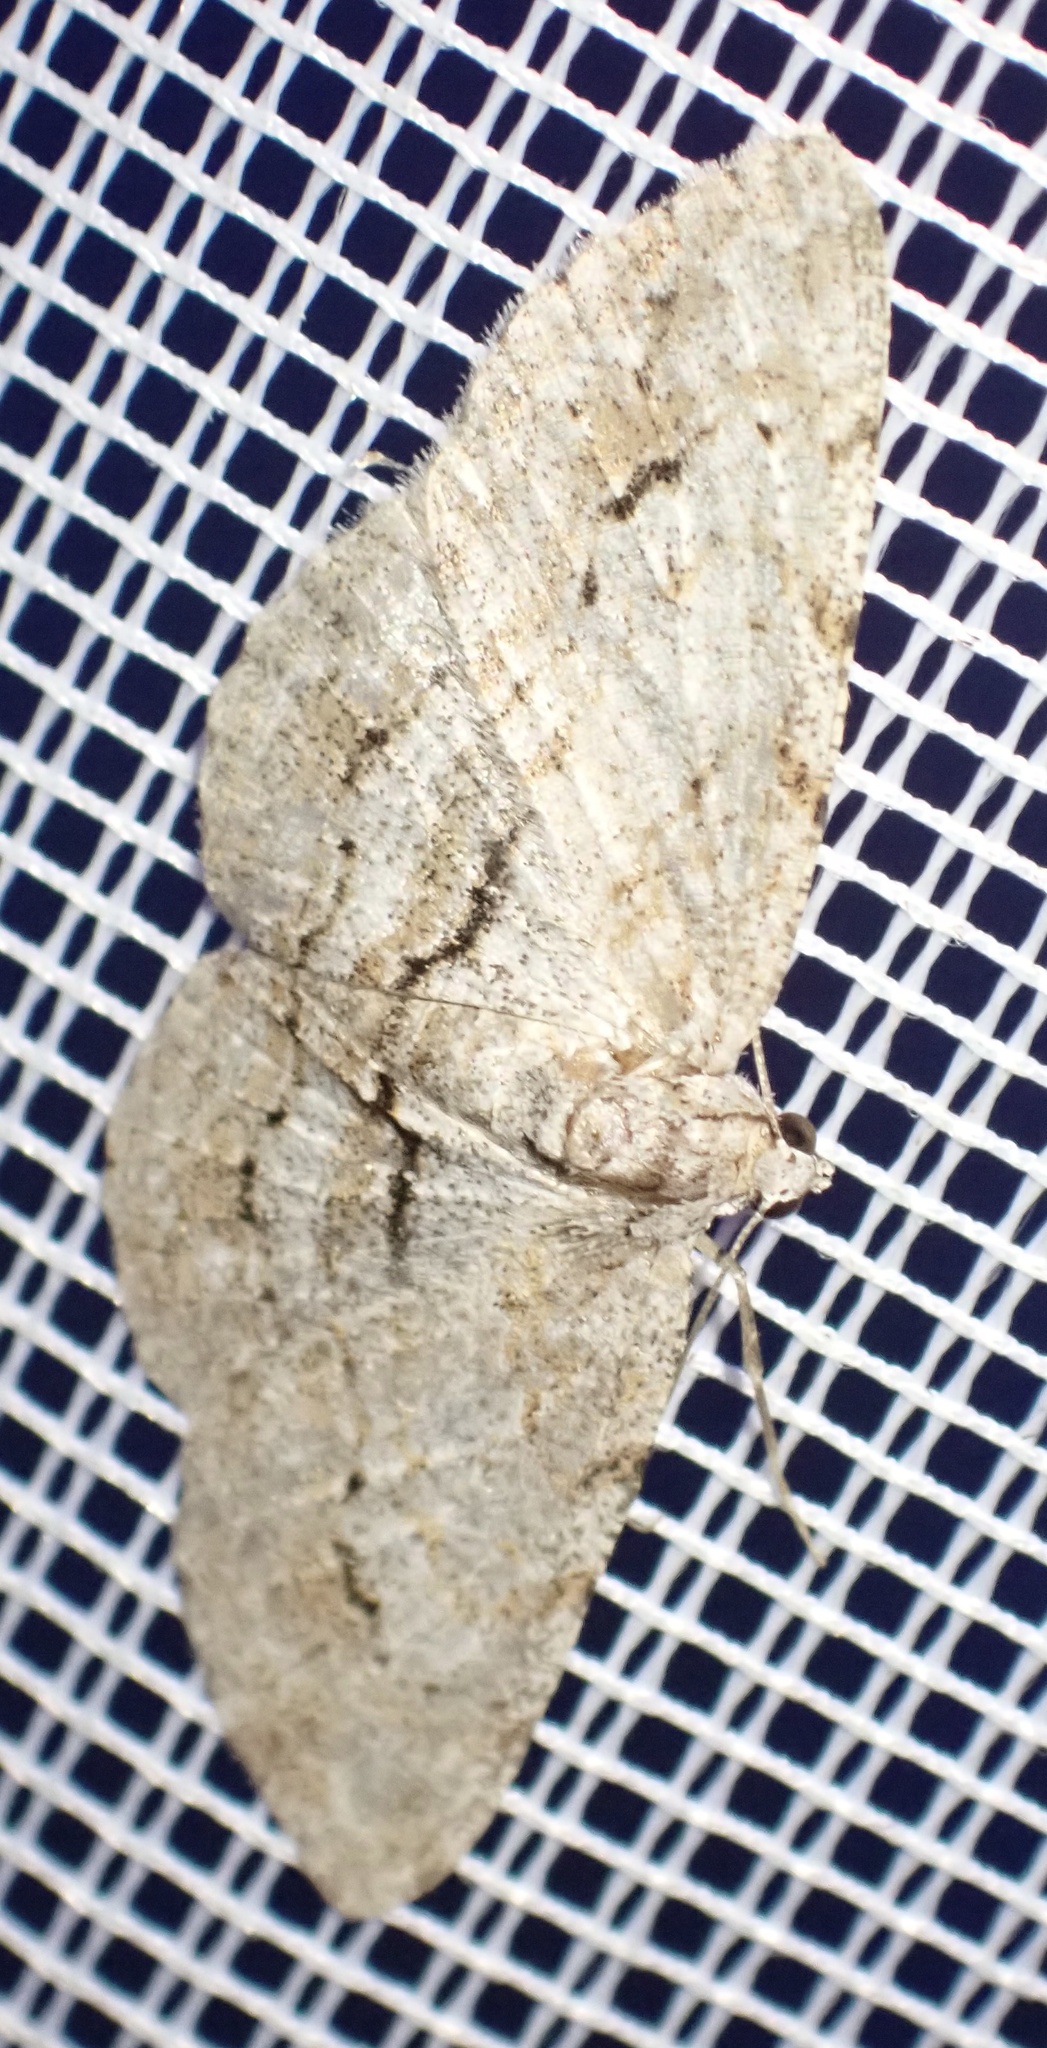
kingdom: Animalia
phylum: Arthropoda
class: Insecta
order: Lepidoptera
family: Geometridae
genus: Didymoctenia
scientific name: Didymoctenia exsuperata
